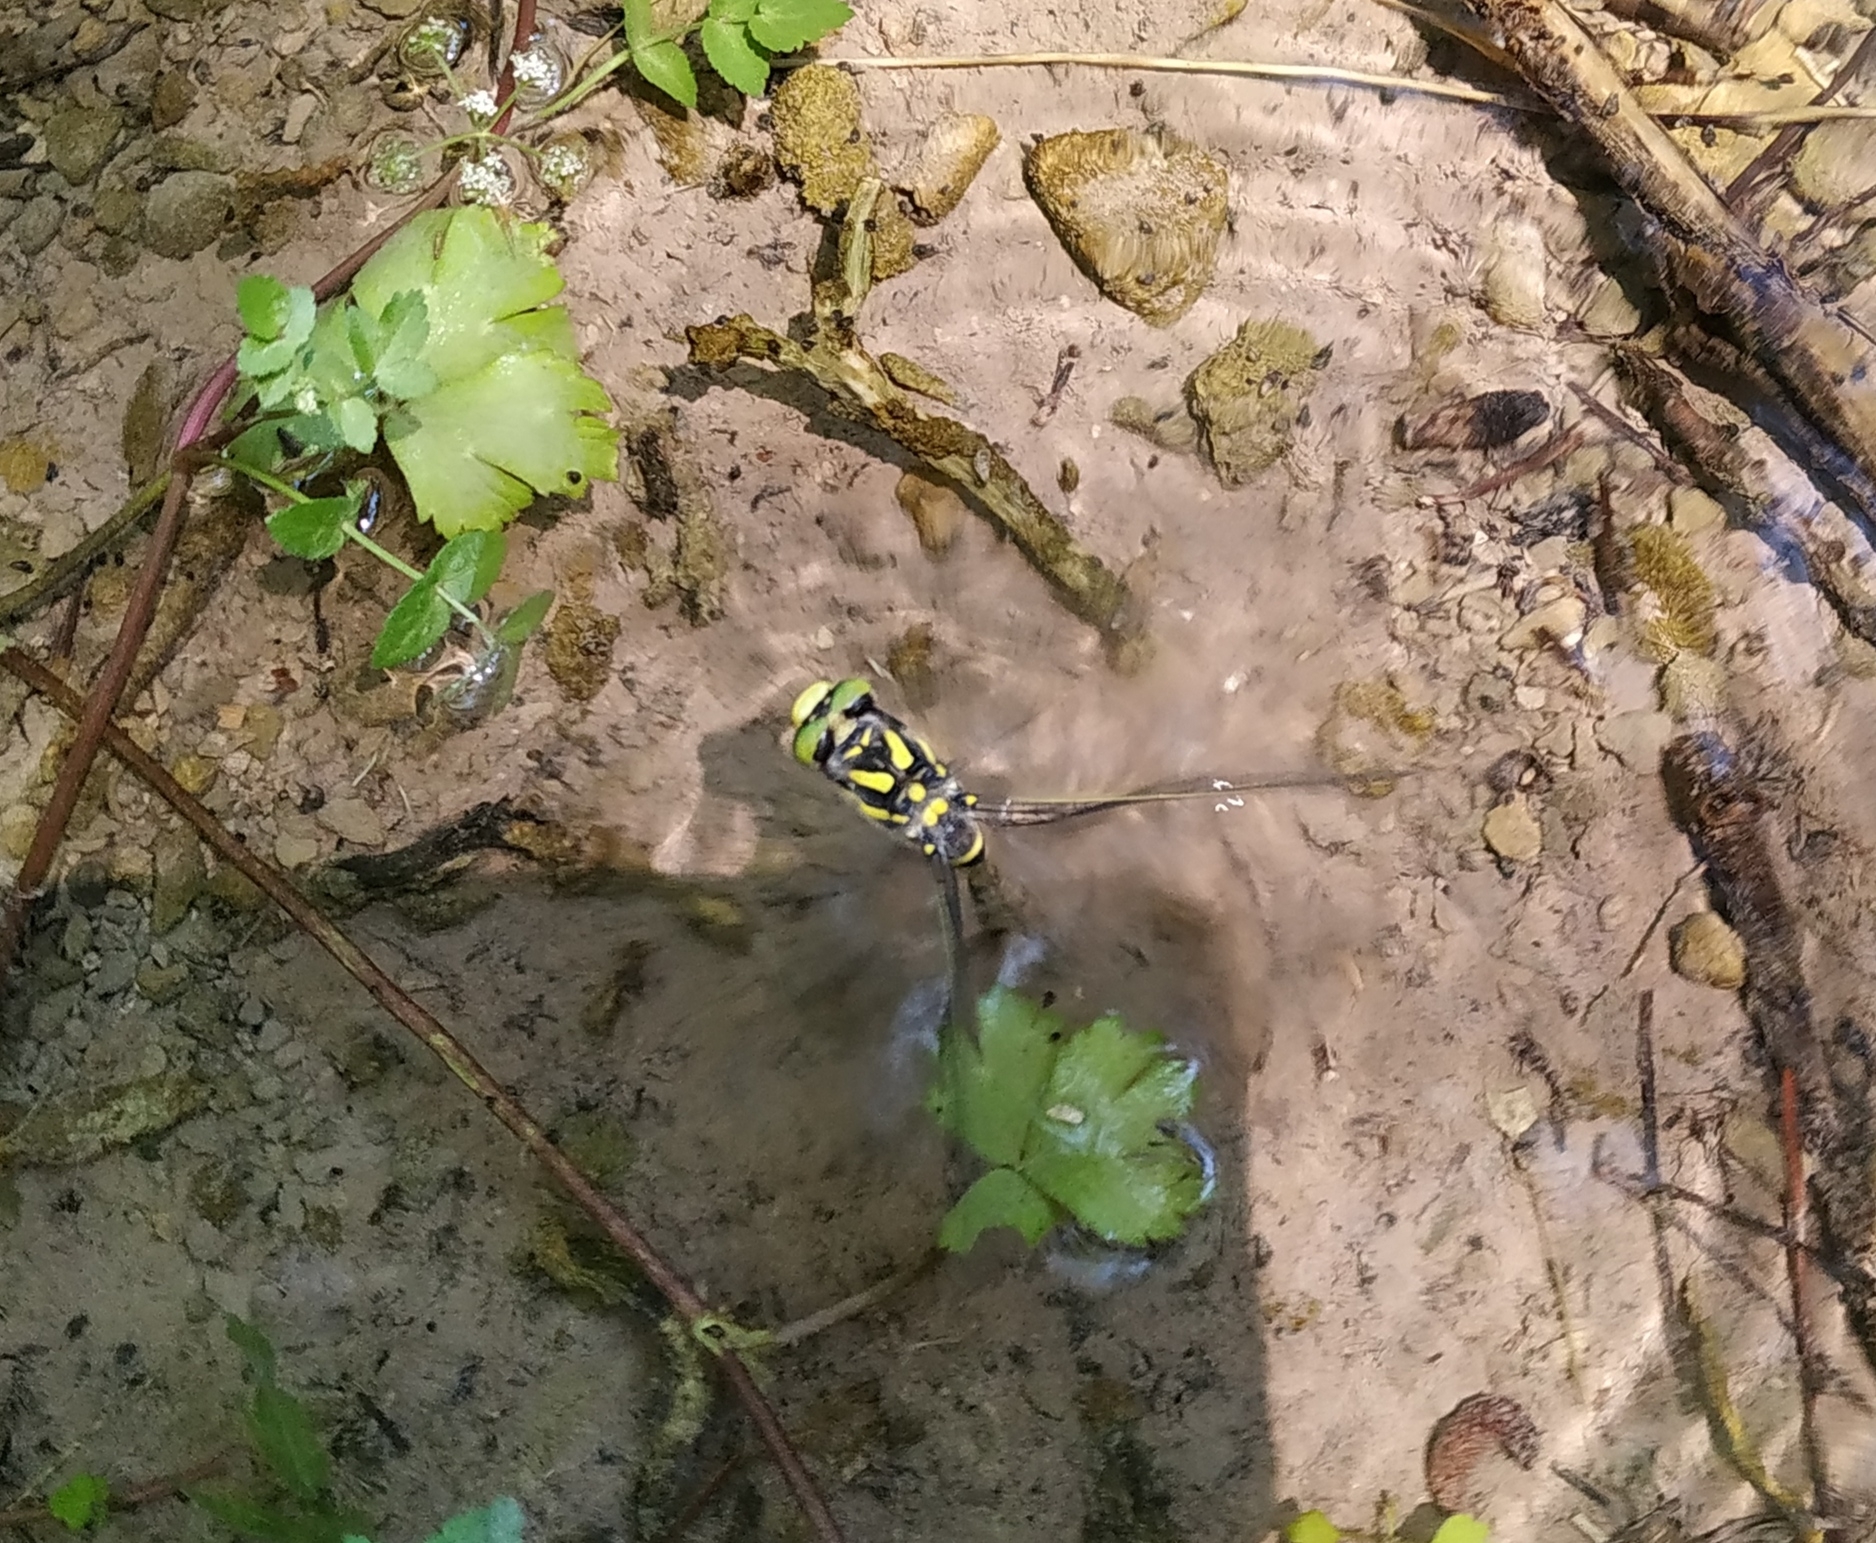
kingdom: Animalia
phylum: Arthropoda
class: Insecta
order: Odonata
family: Cordulegastridae
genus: Cordulegaster
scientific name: Cordulegaster boltonii
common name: Golden-ringed dragonfly
